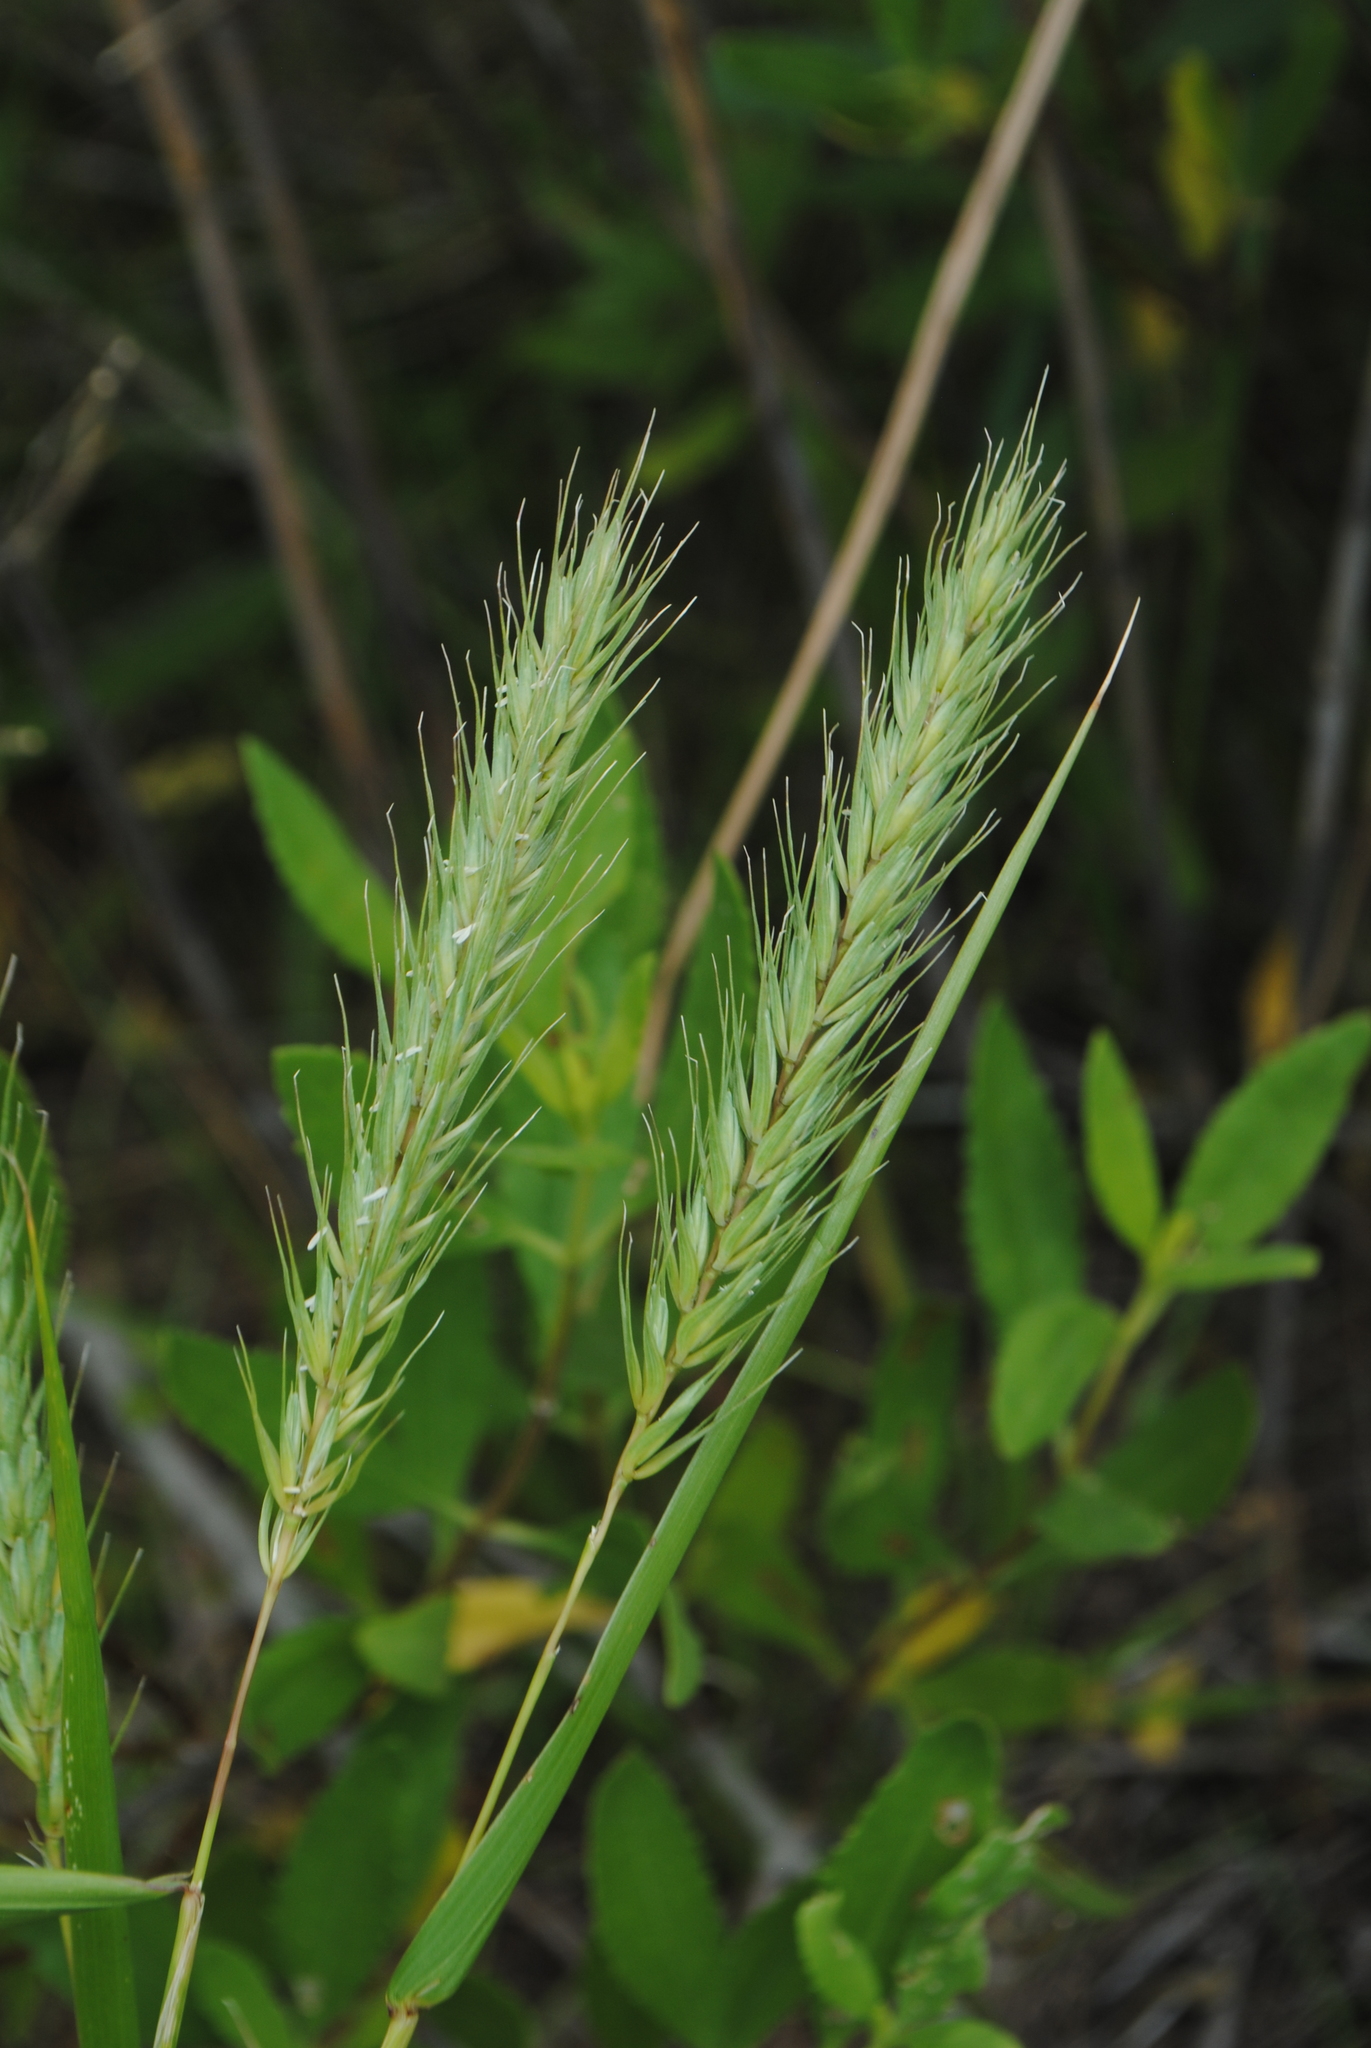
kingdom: Plantae
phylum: Tracheophyta
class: Liliopsida
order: Poales
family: Poaceae
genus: Elymus
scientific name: Elymus virginicus
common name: Common eastern wildrye
